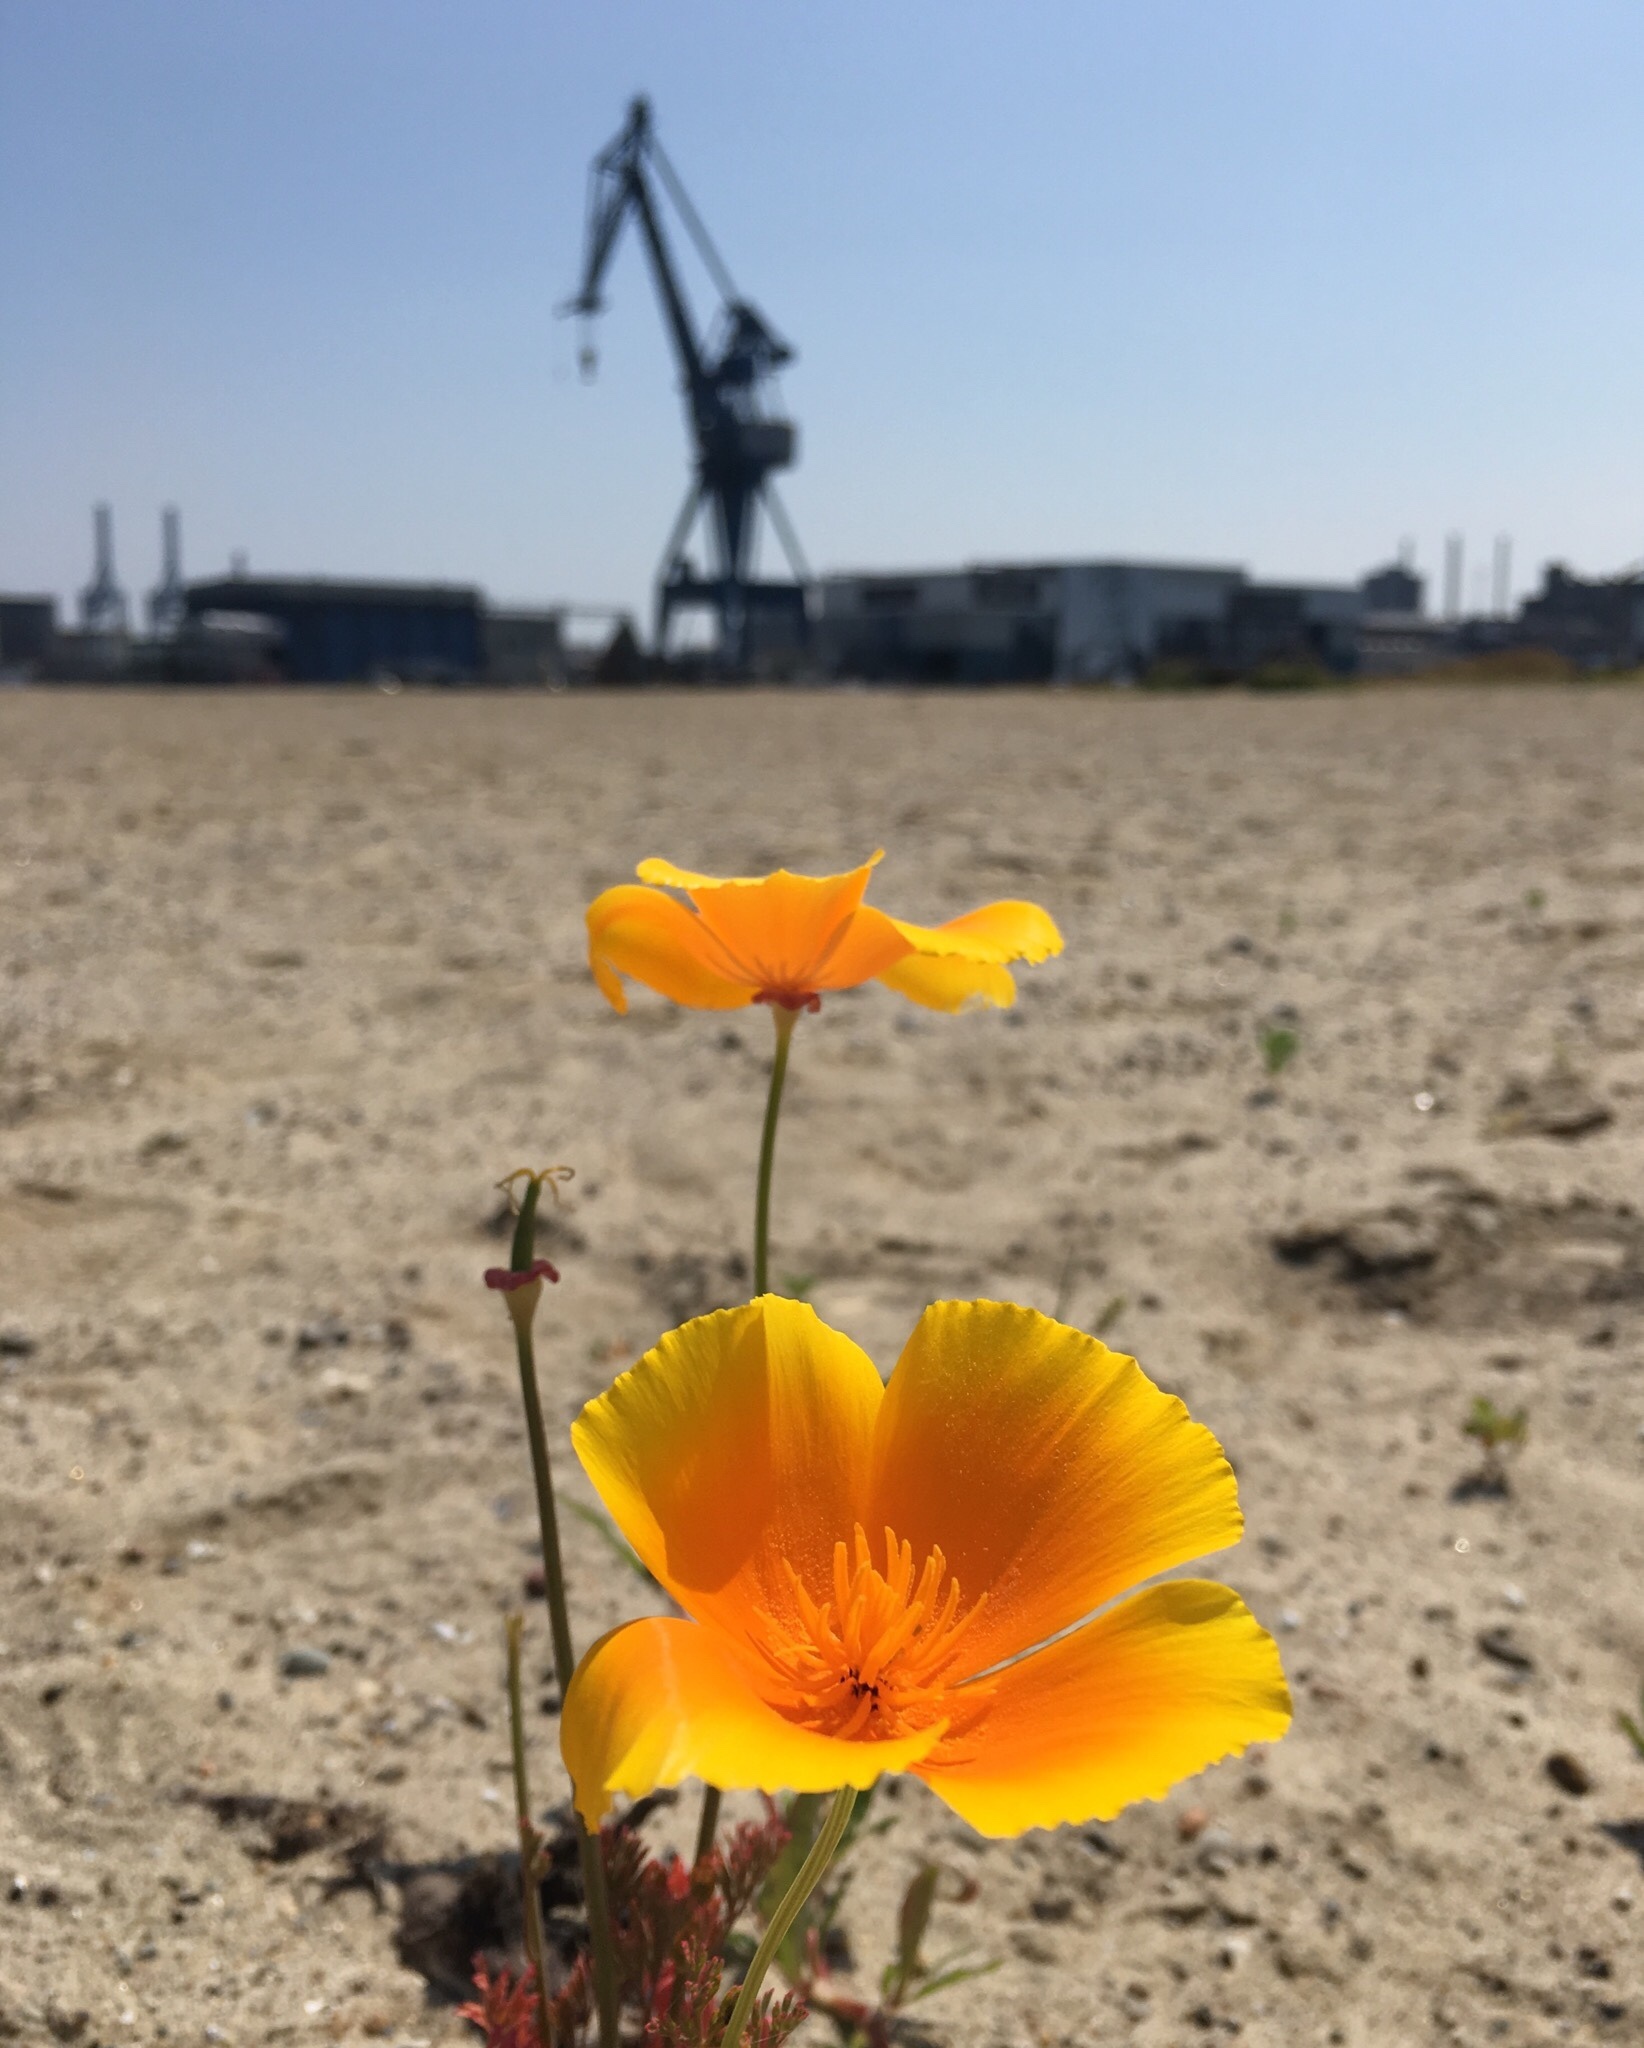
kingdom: Plantae
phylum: Tracheophyta
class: Magnoliopsida
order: Ranunculales
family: Papaveraceae
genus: Eschscholzia
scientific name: Eschscholzia californica
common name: California poppy
